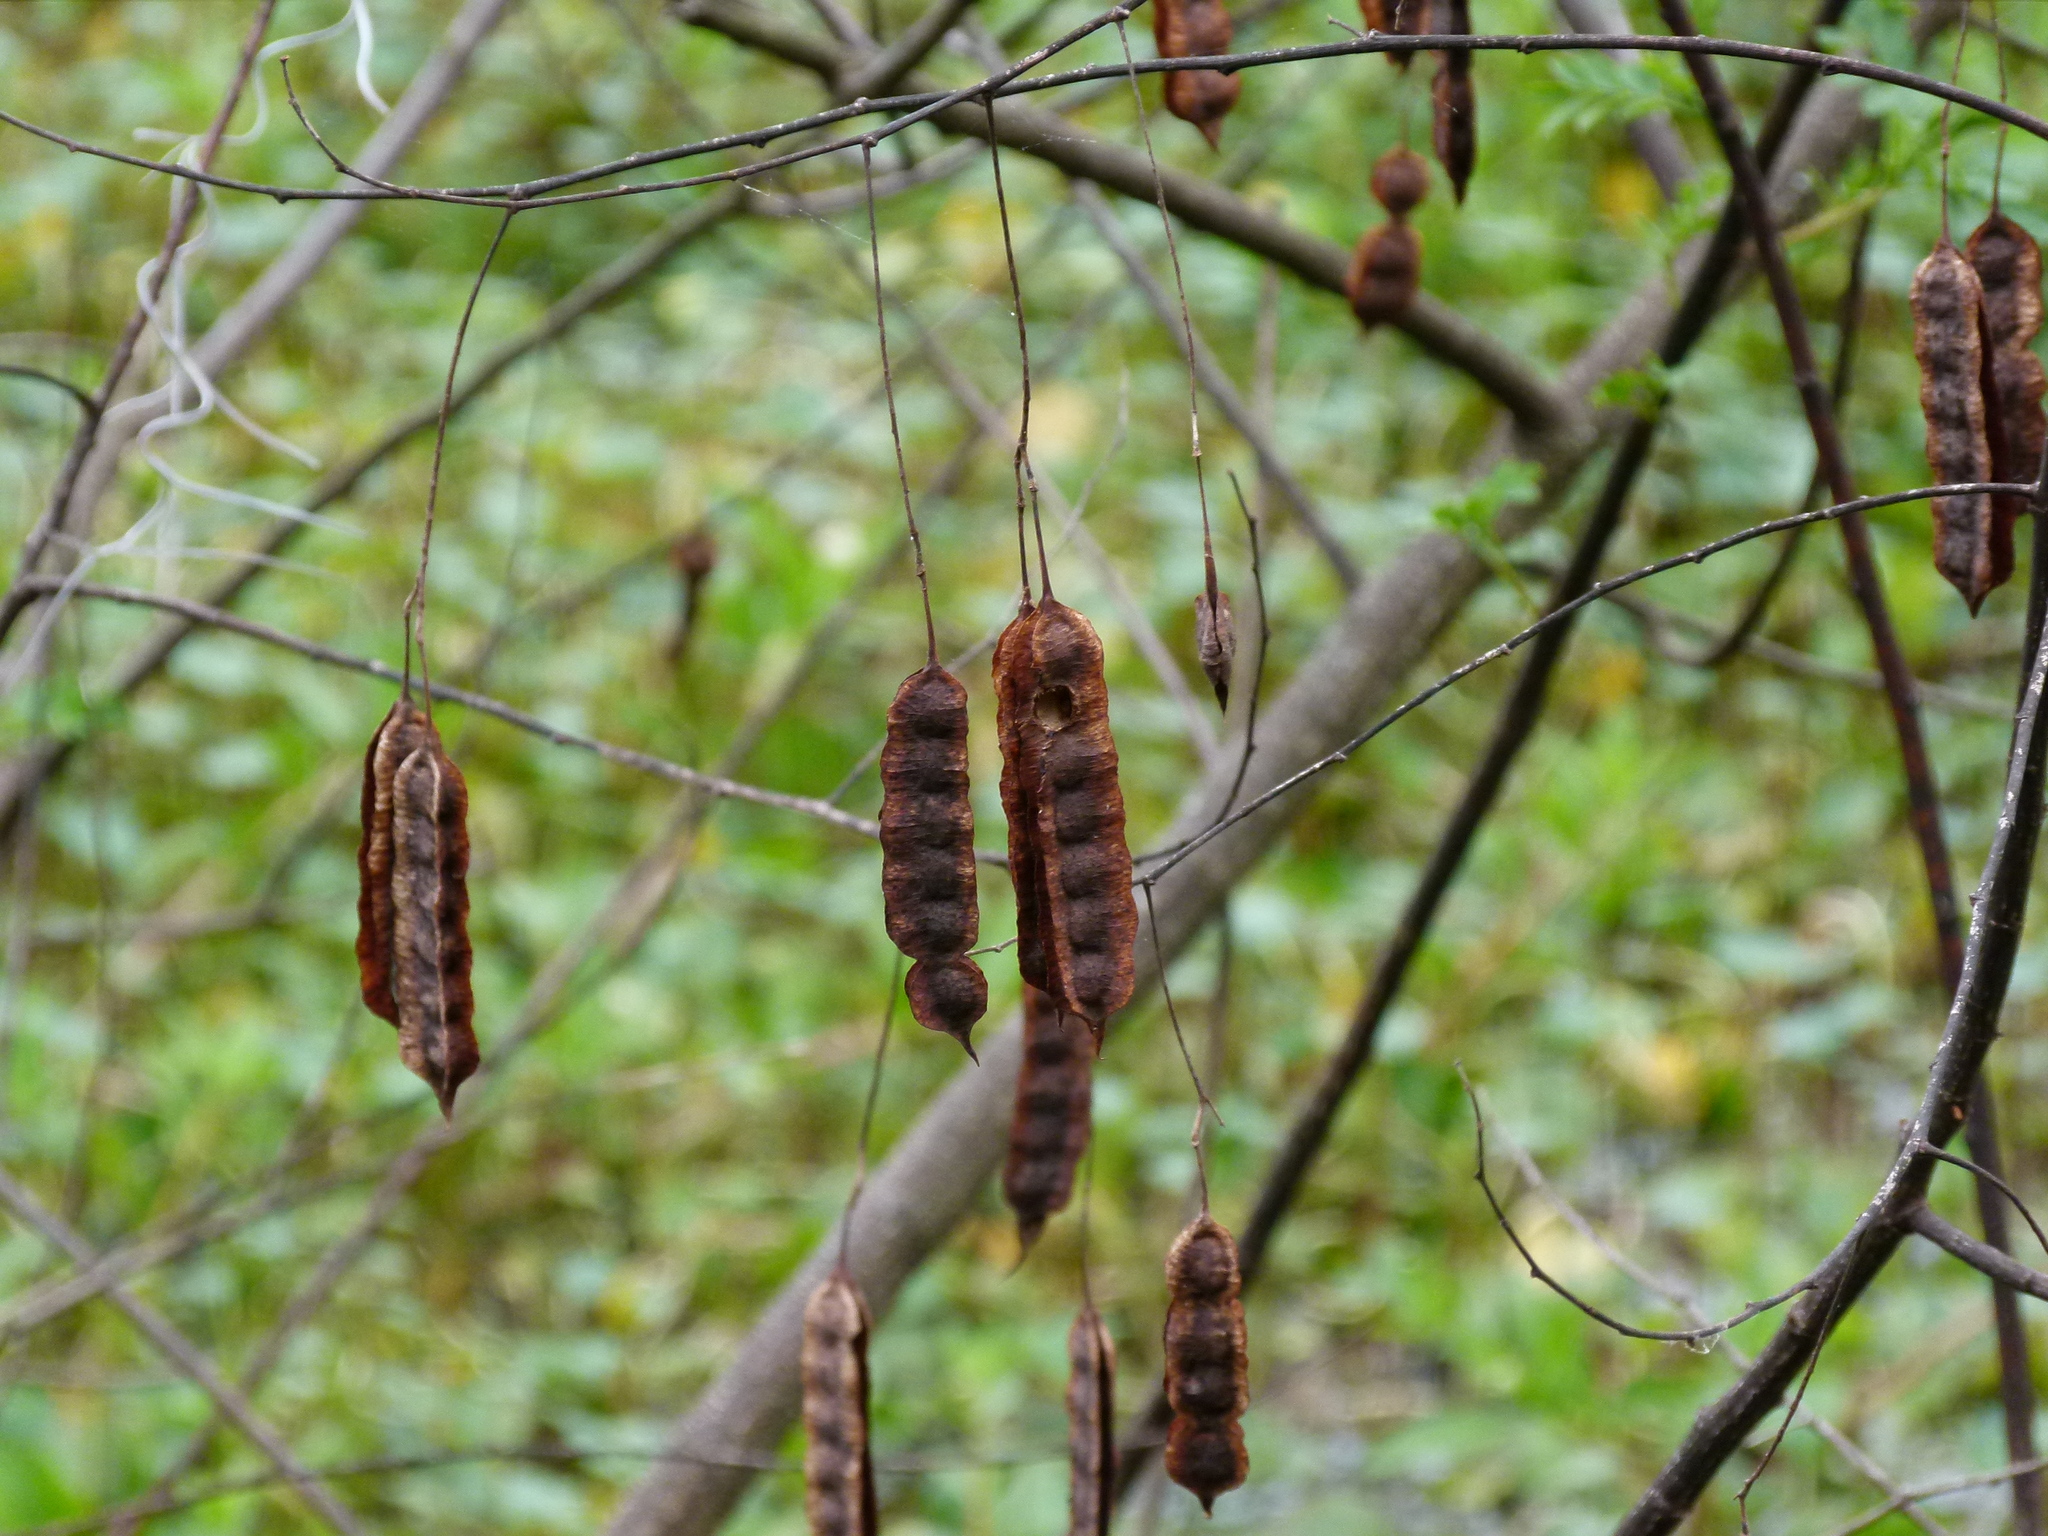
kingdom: Plantae
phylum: Tracheophyta
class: Magnoliopsida
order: Fabales
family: Fabaceae
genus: Sesbania
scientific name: Sesbania drummondii
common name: Poison-bean
